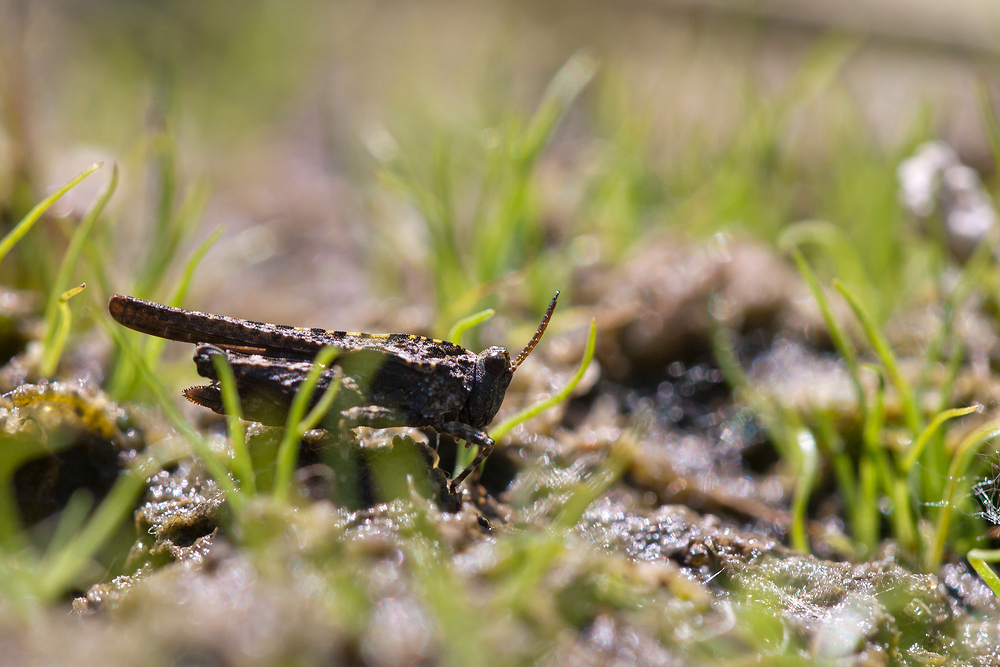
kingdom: Animalia
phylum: Arthropoda
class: Insecta
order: Orthoptera
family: Tetrigidae
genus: Tetrix
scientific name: Tetrix ceperoi
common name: Cepero's ground-hopper
